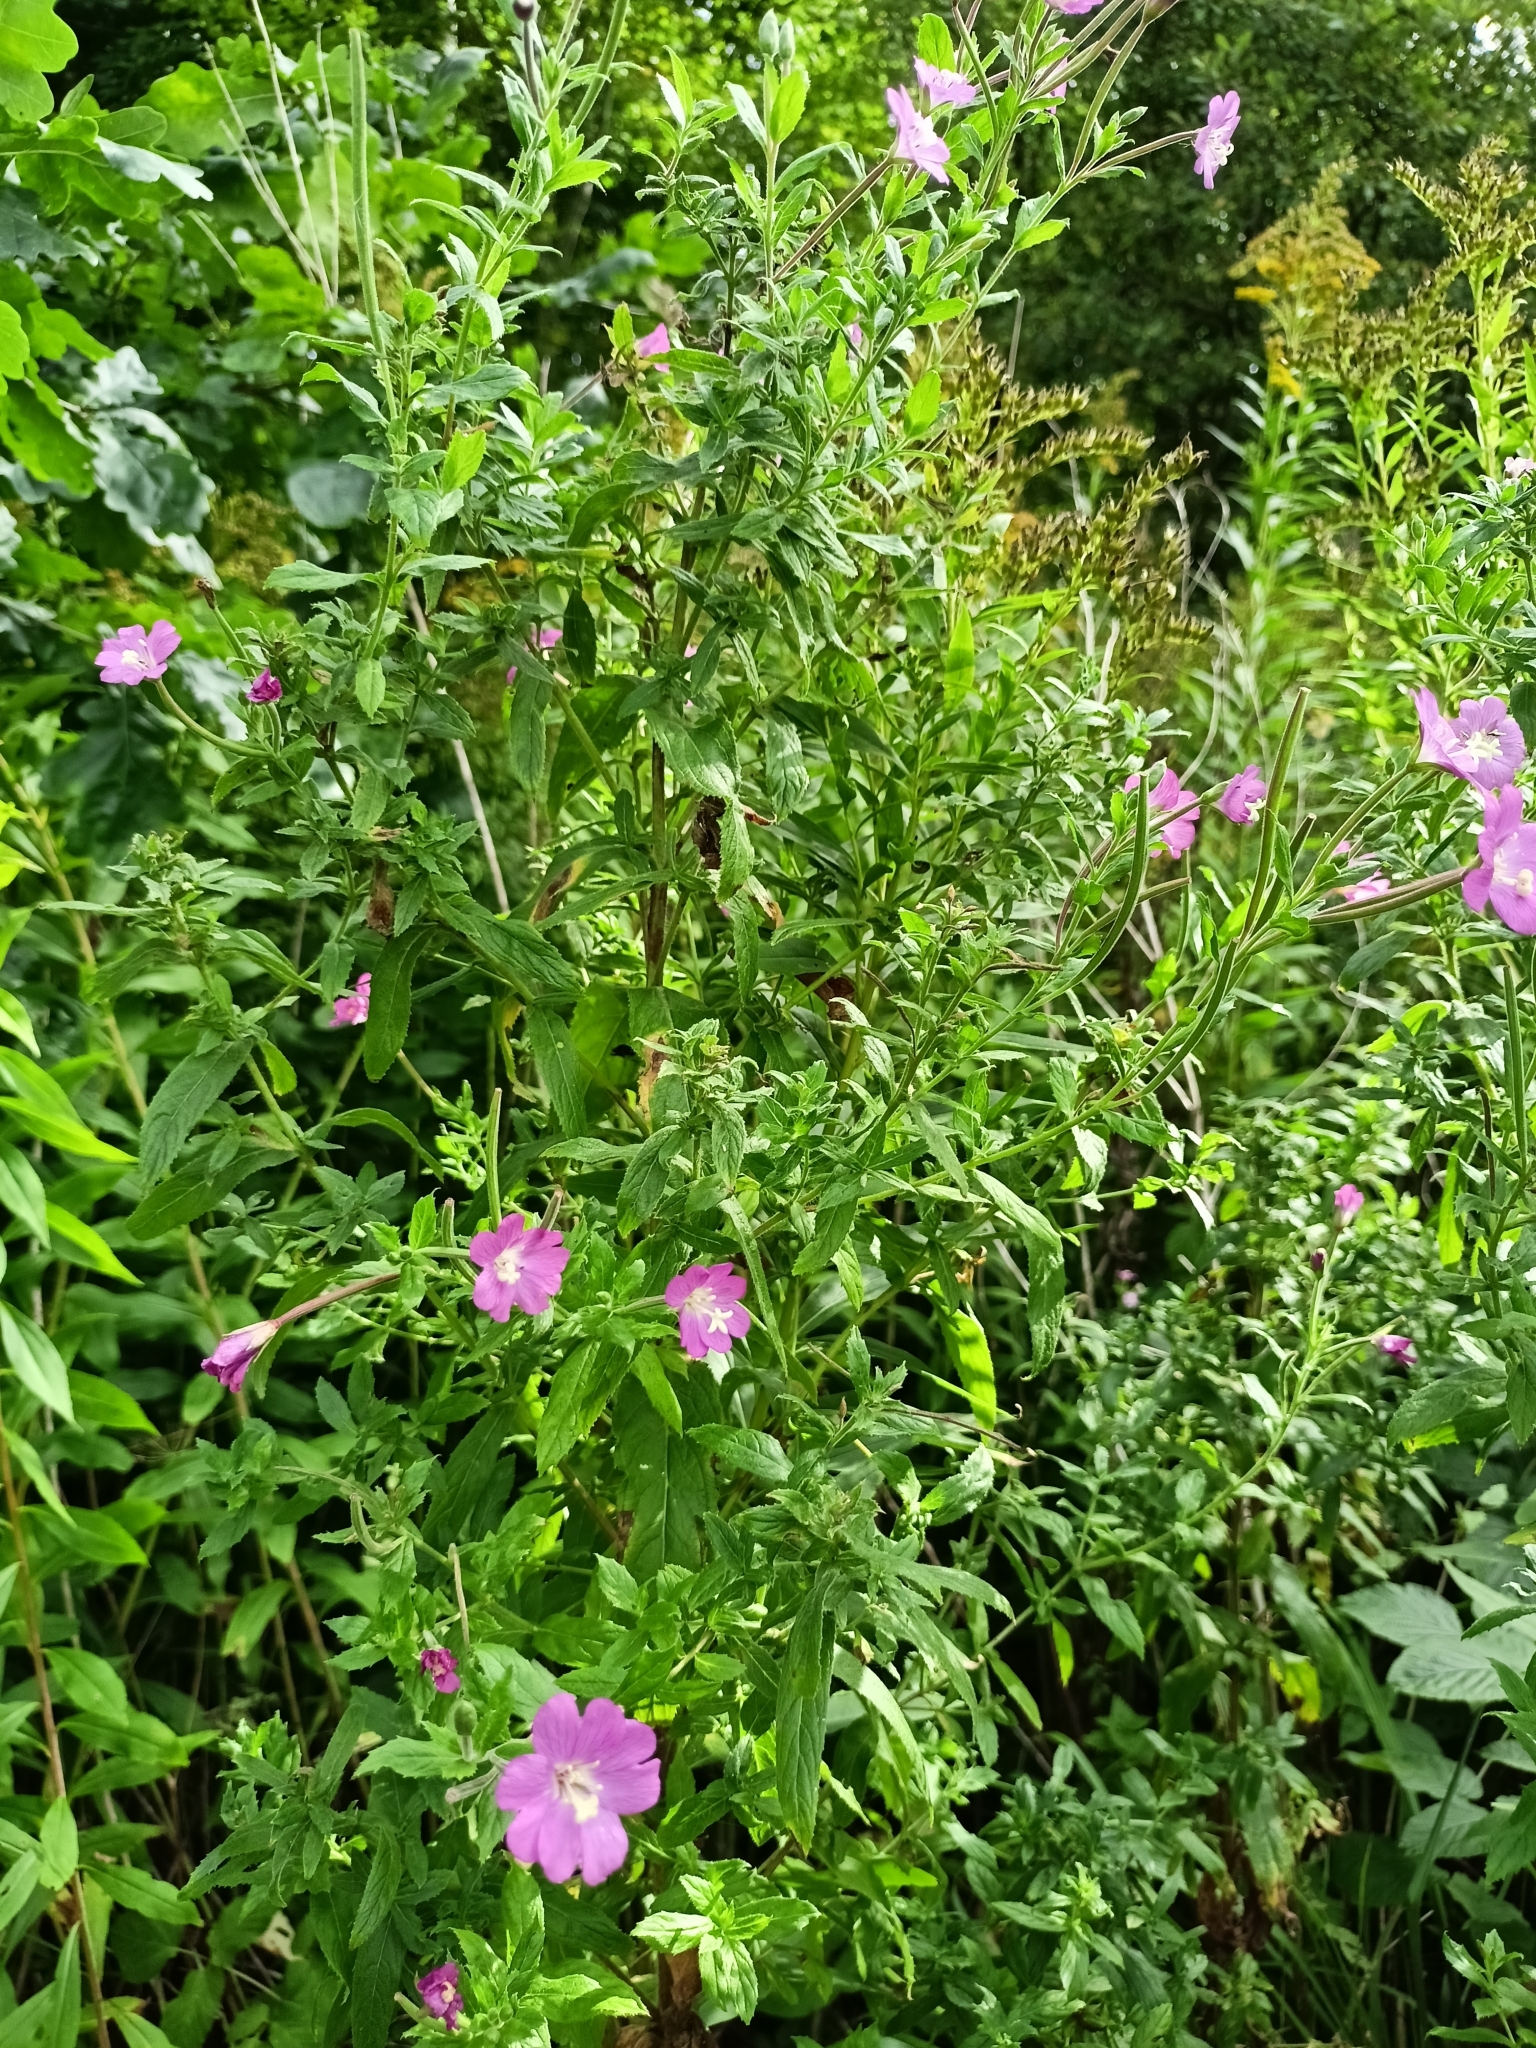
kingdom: Plantae
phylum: Tracheophyta
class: Magnoliopsida
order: Myrtales
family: Onagraceae
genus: Epilobium
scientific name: Epilobium hirsutum
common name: Great willowherb
